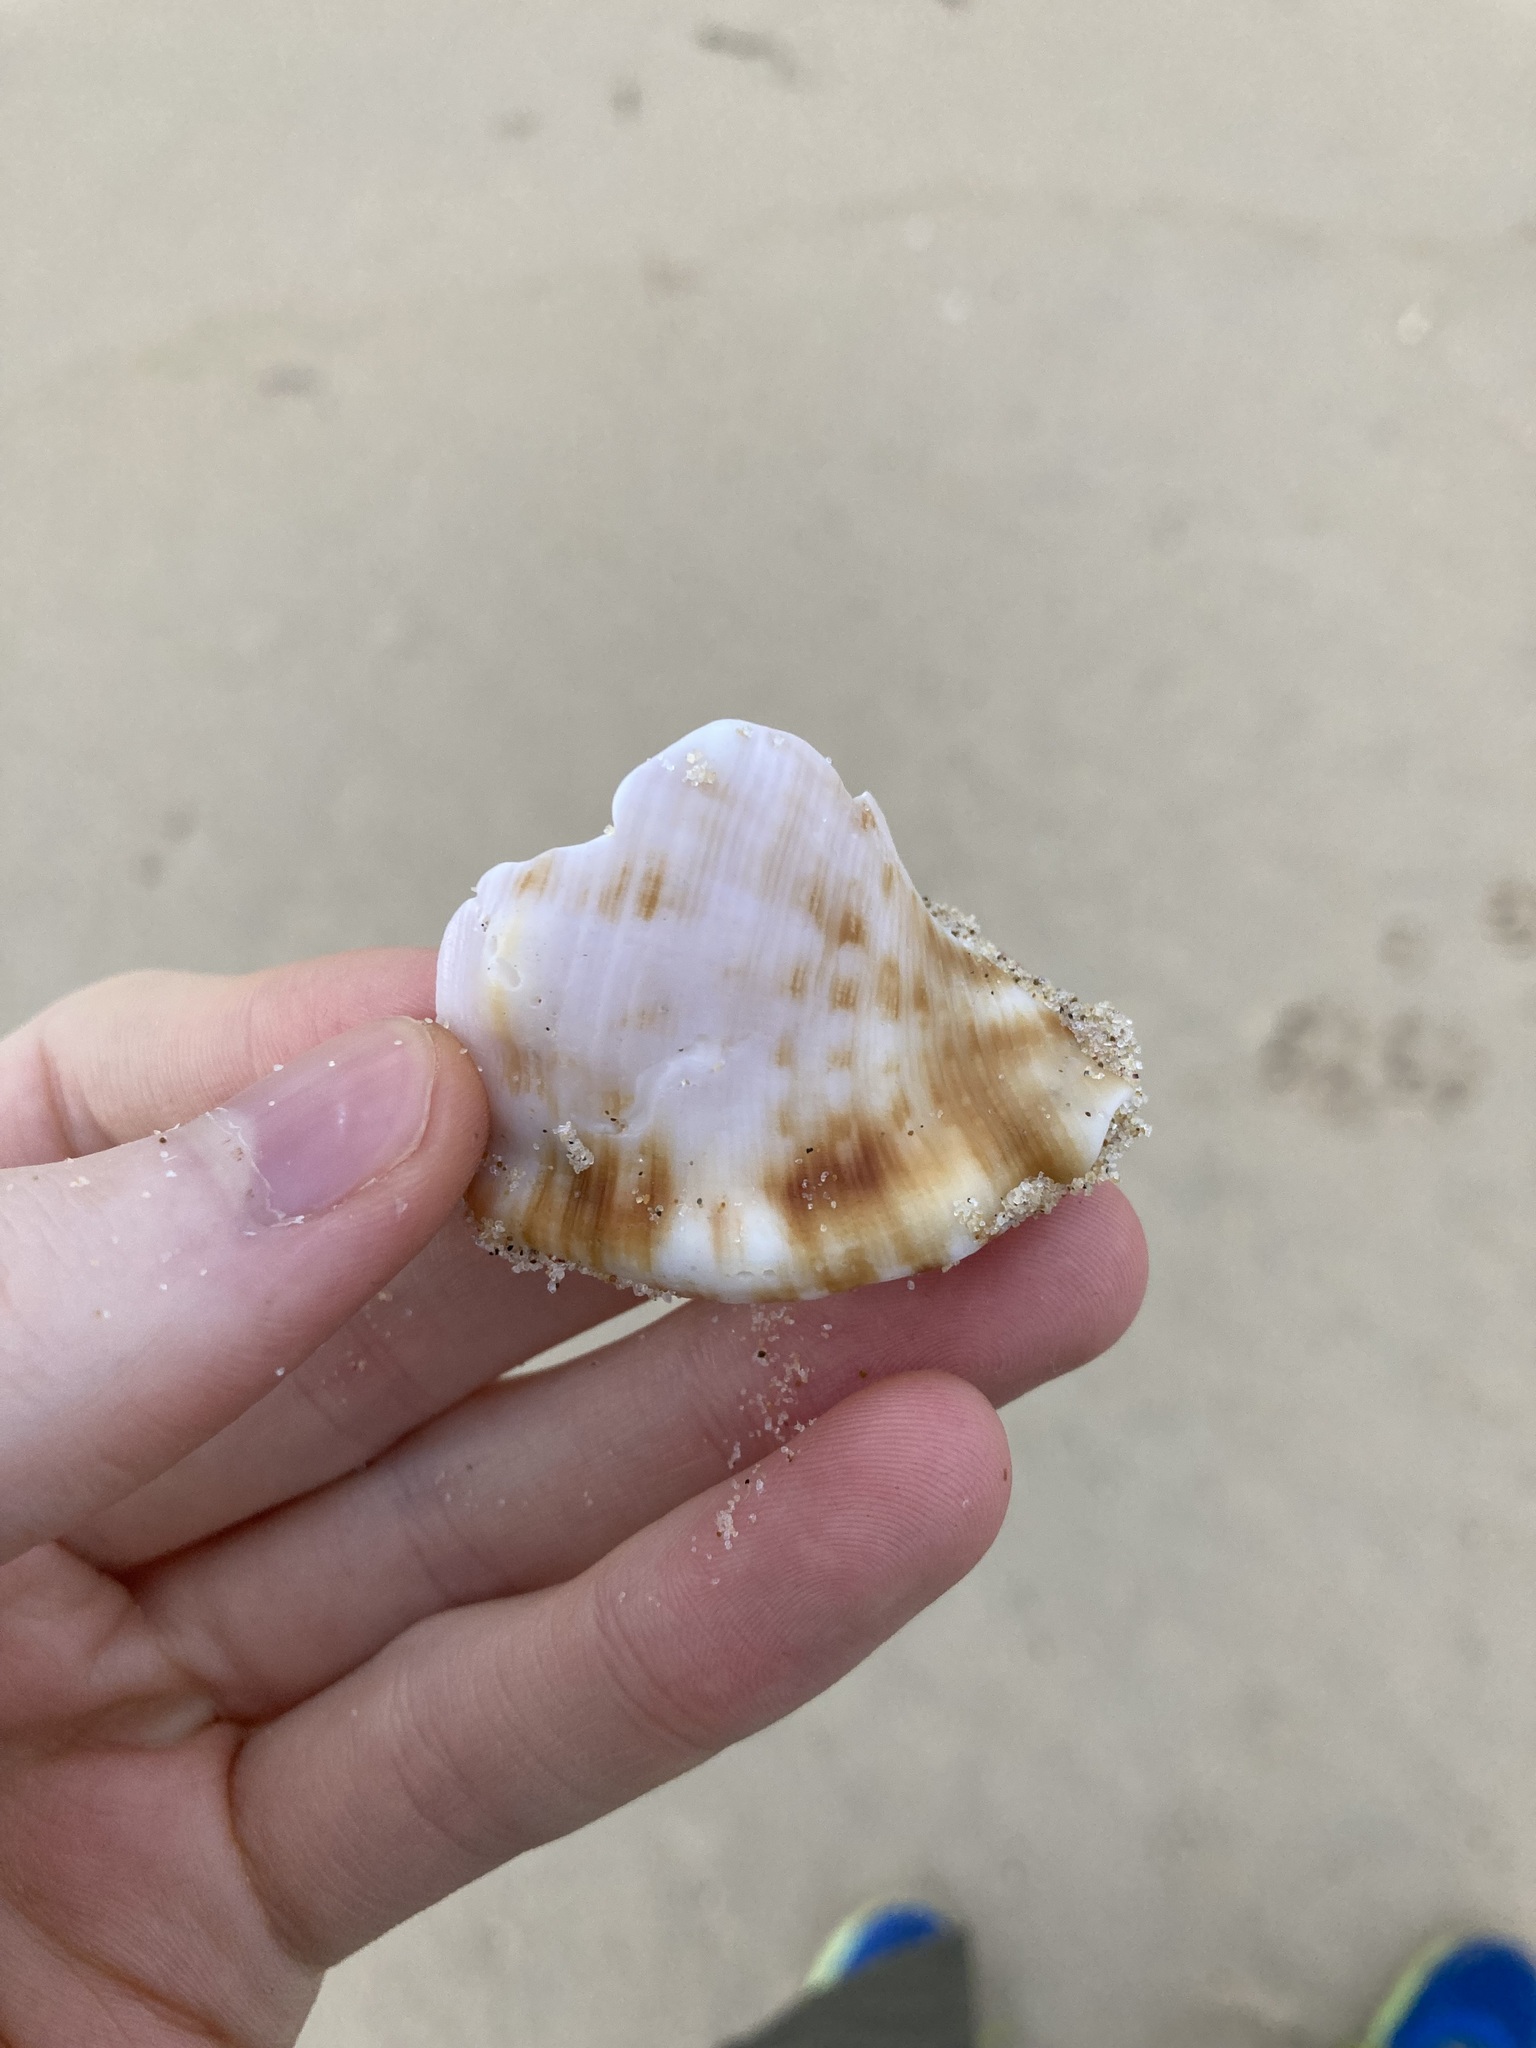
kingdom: Animalia
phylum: Mollusca
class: Gastropoda
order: Littorinimorpha
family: Charoniidae
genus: Charonia
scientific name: Charonia lampas
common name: Knobbed triton
